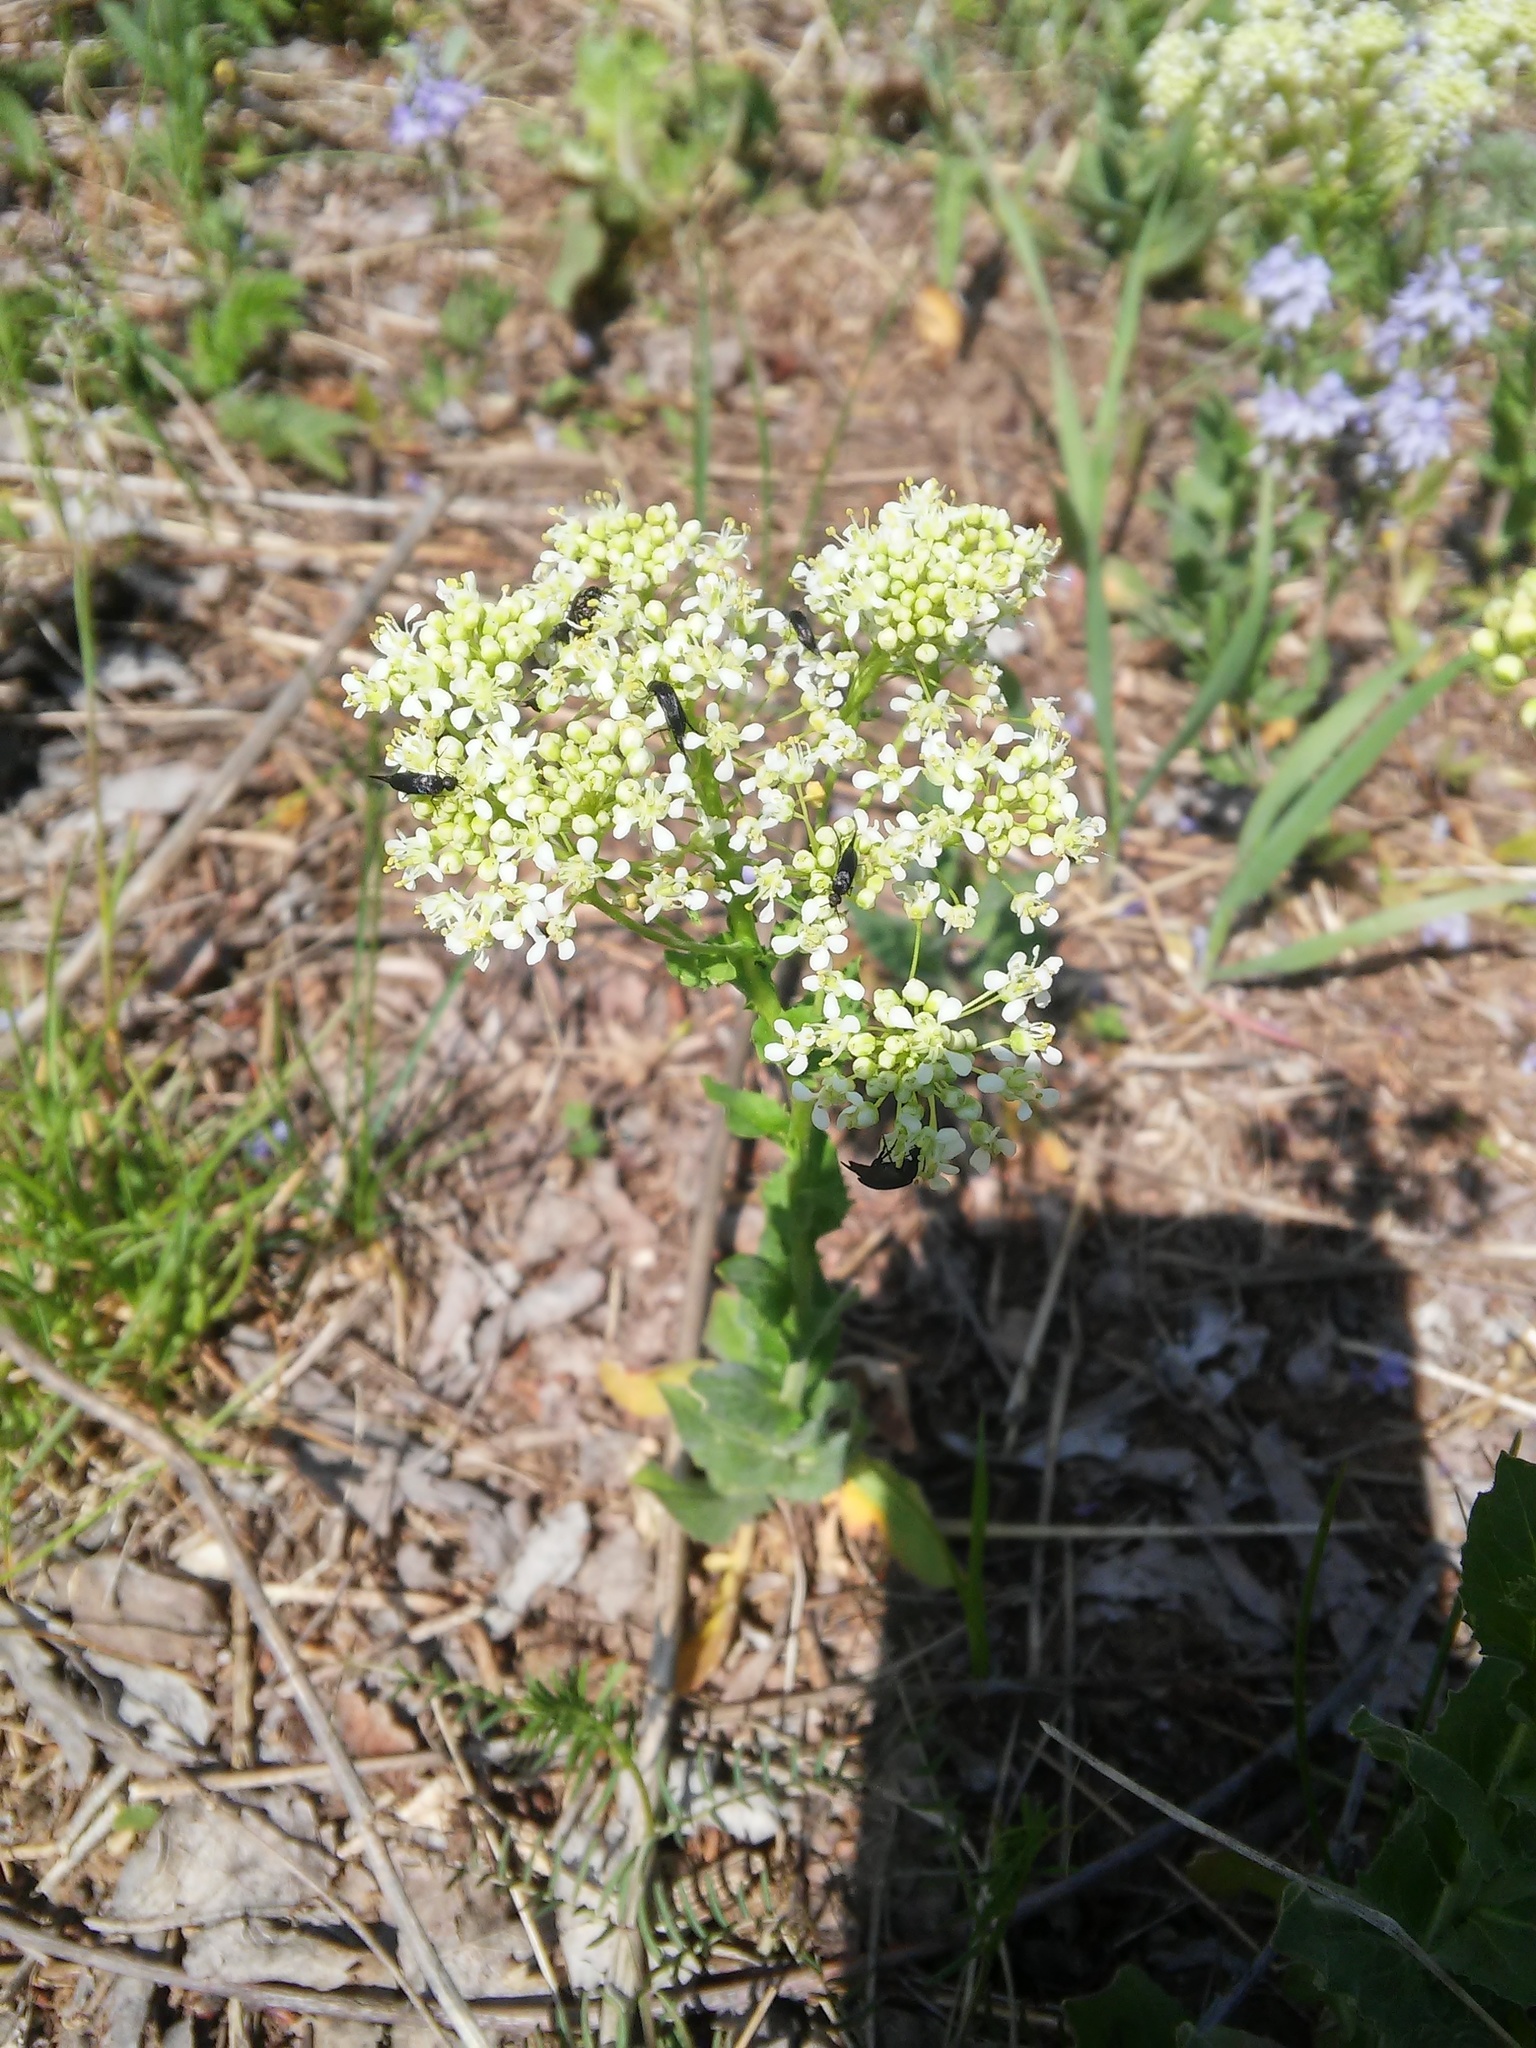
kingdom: Plantae
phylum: Tracheophyta
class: Magnoliopsida
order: Brassicales
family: Brassicaceae
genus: Lepidium
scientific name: Lepidium draba
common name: Hoary cress
